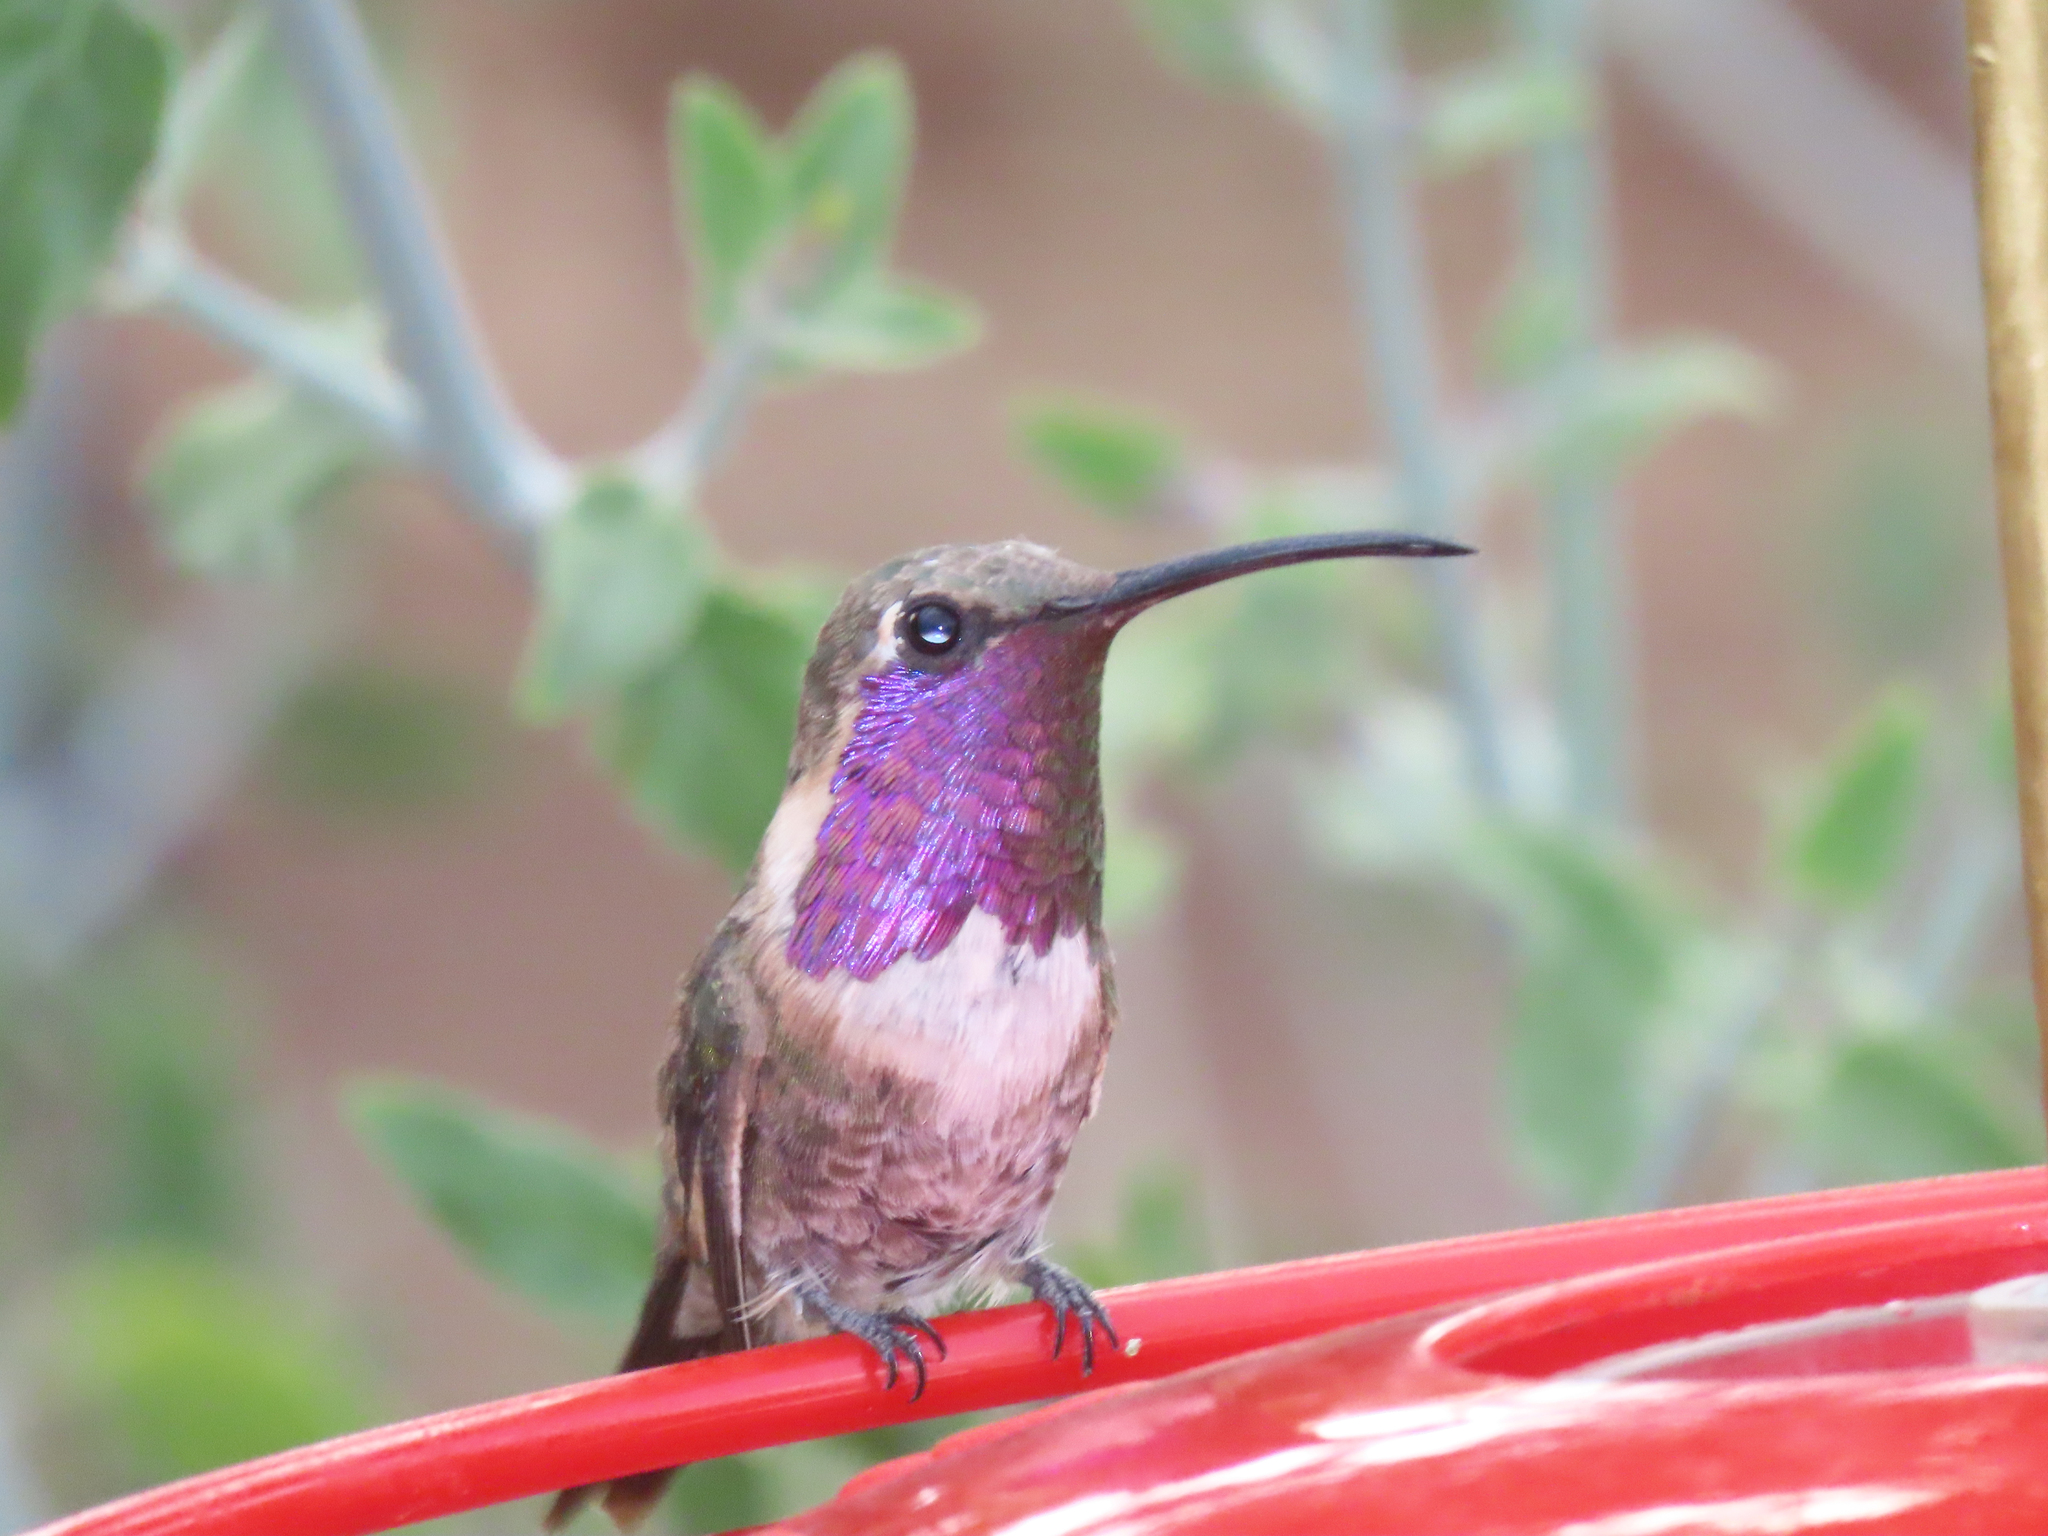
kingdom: Animalia
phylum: Chordata
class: Aves
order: Apodiformes
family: Trochilidae
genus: Calothorax
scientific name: Calothorax lucifer
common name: Lucifer sheartail
